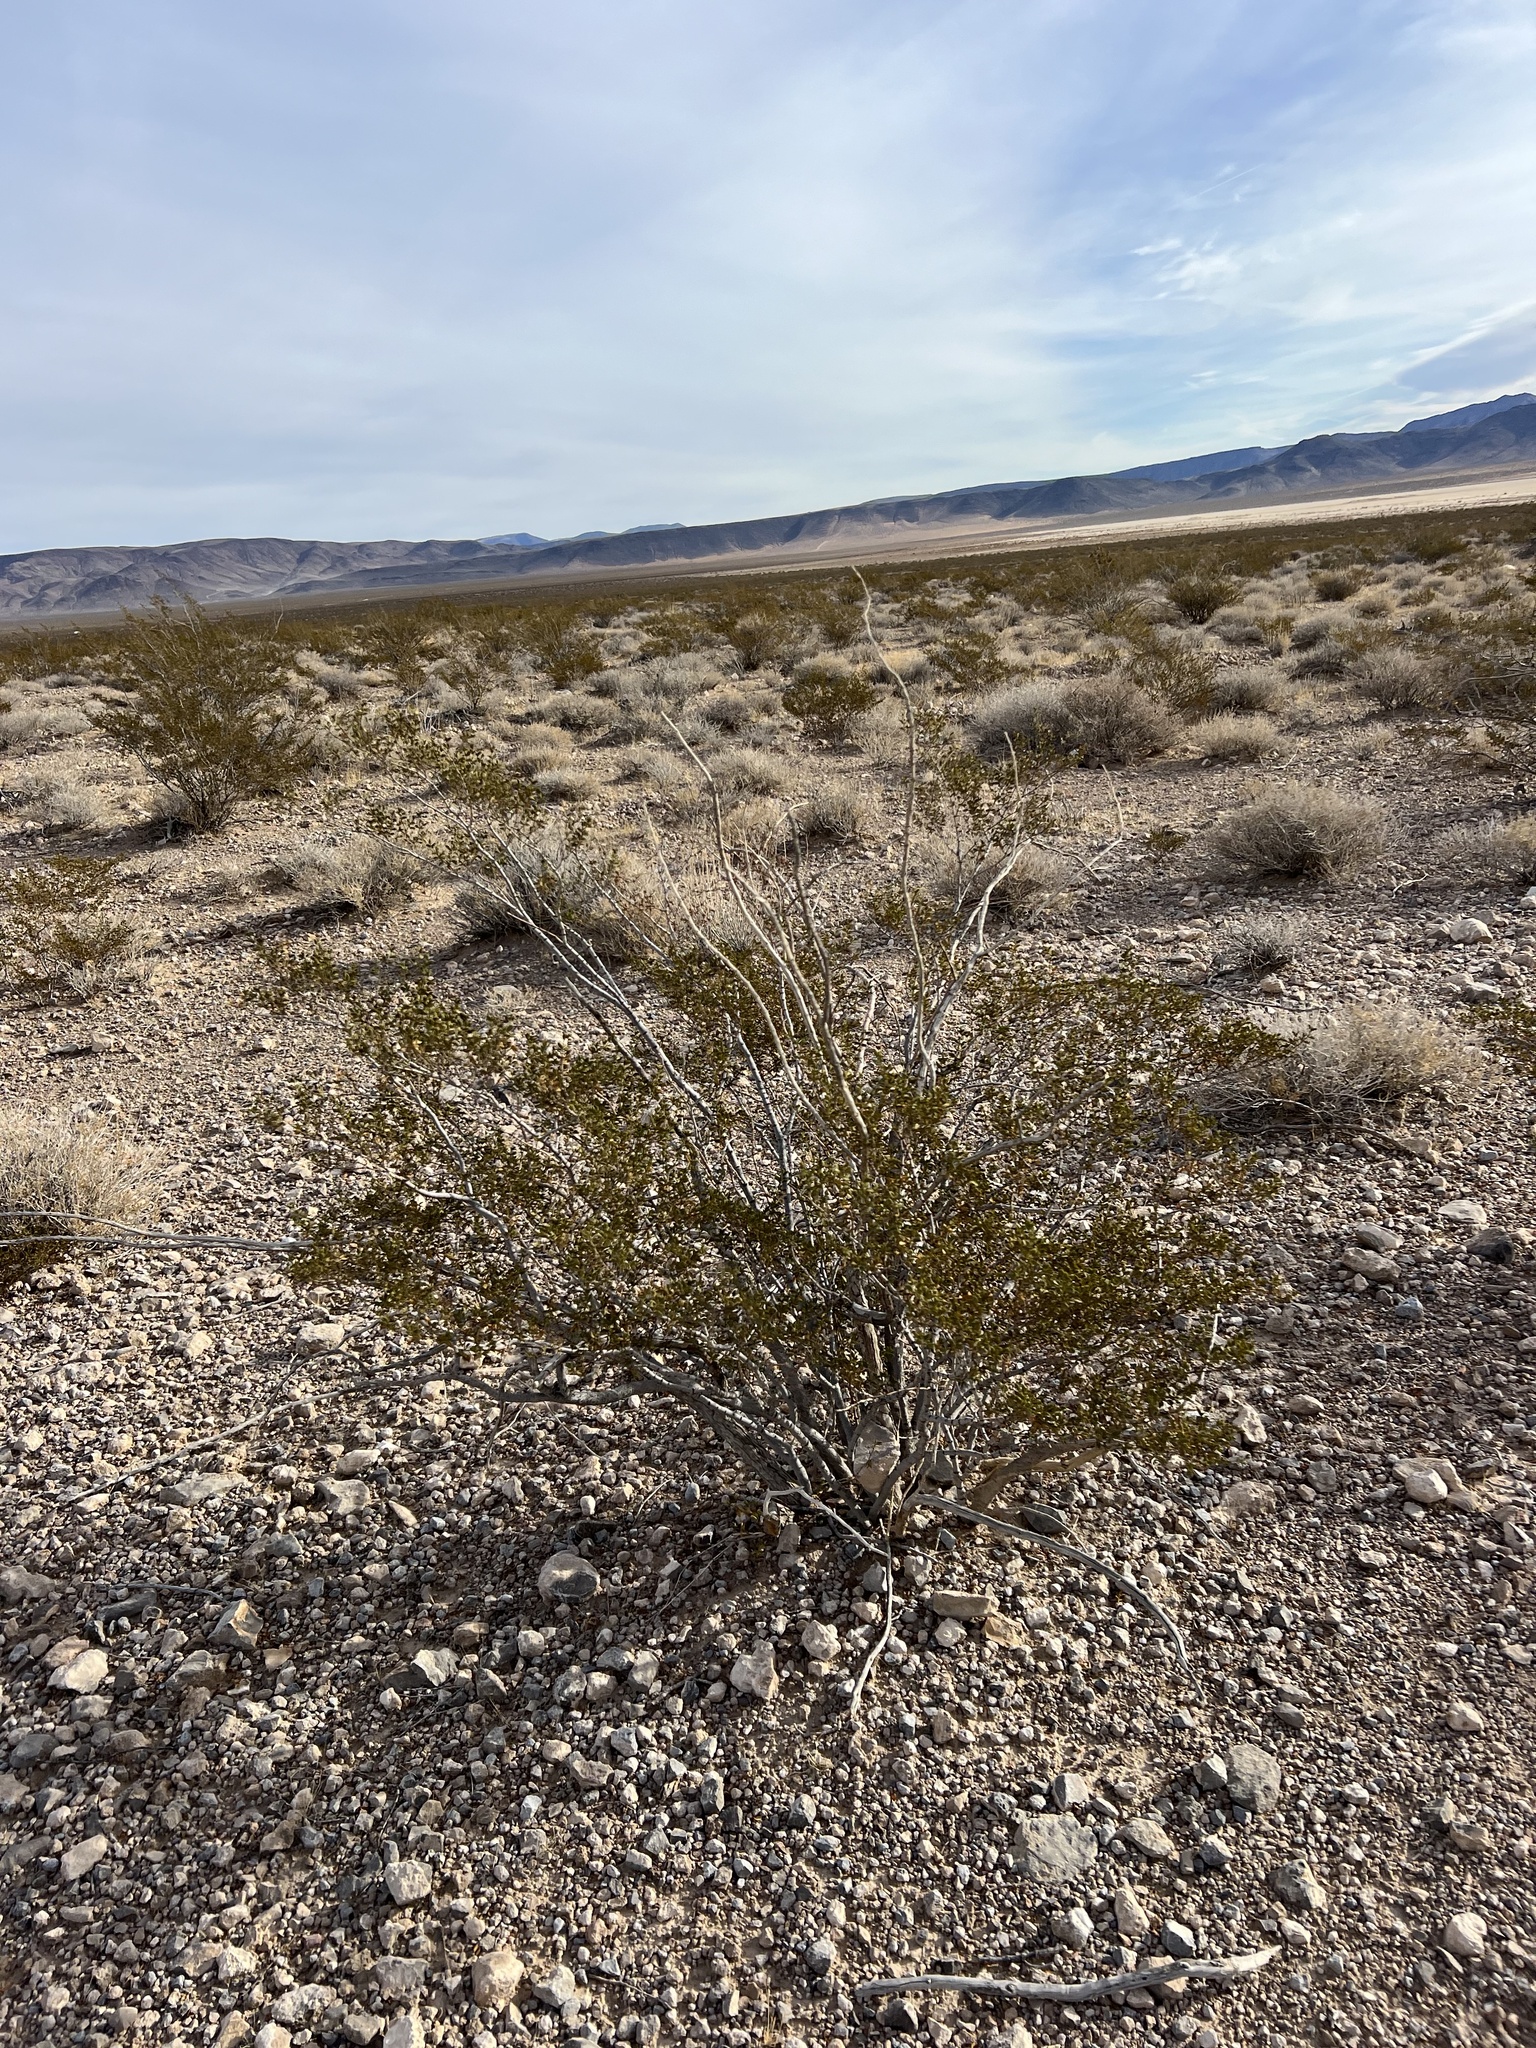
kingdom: Plantae
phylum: Tracheophyta
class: Magnoliopsida
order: Zygophyllales
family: Zygophyllaceae
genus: Larrea
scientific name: Larrea tridentata
